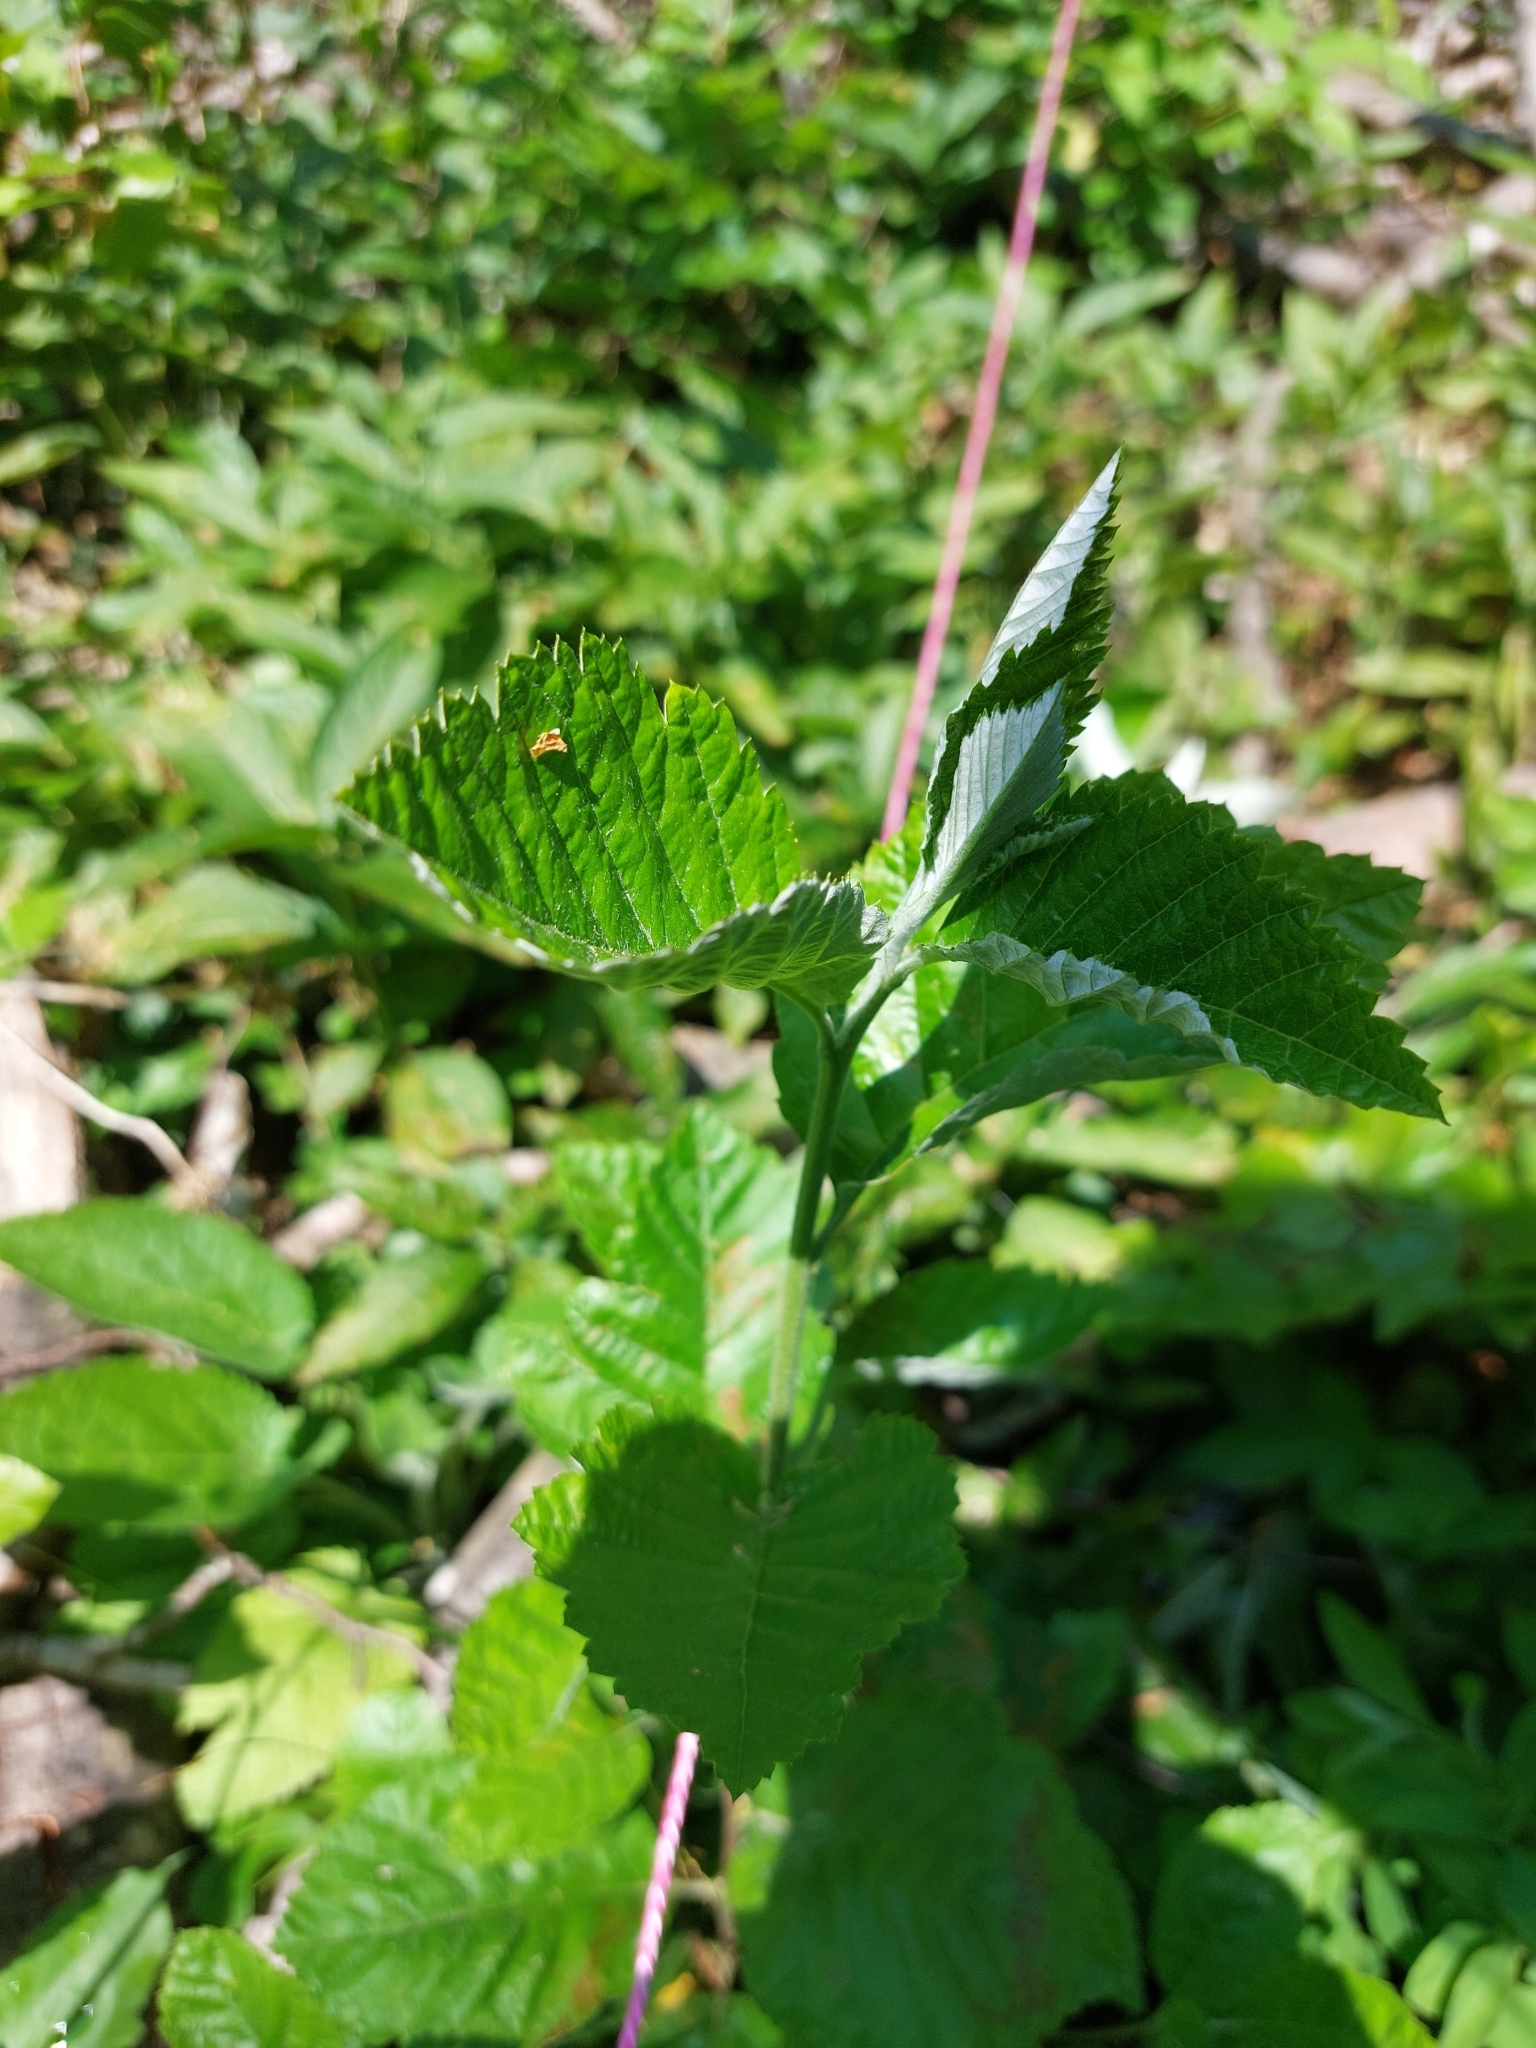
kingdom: Plantae
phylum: Tracheophyta
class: Magnoliopsida
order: Rosales
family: Rosaceae
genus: Aria
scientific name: Aria edulis
